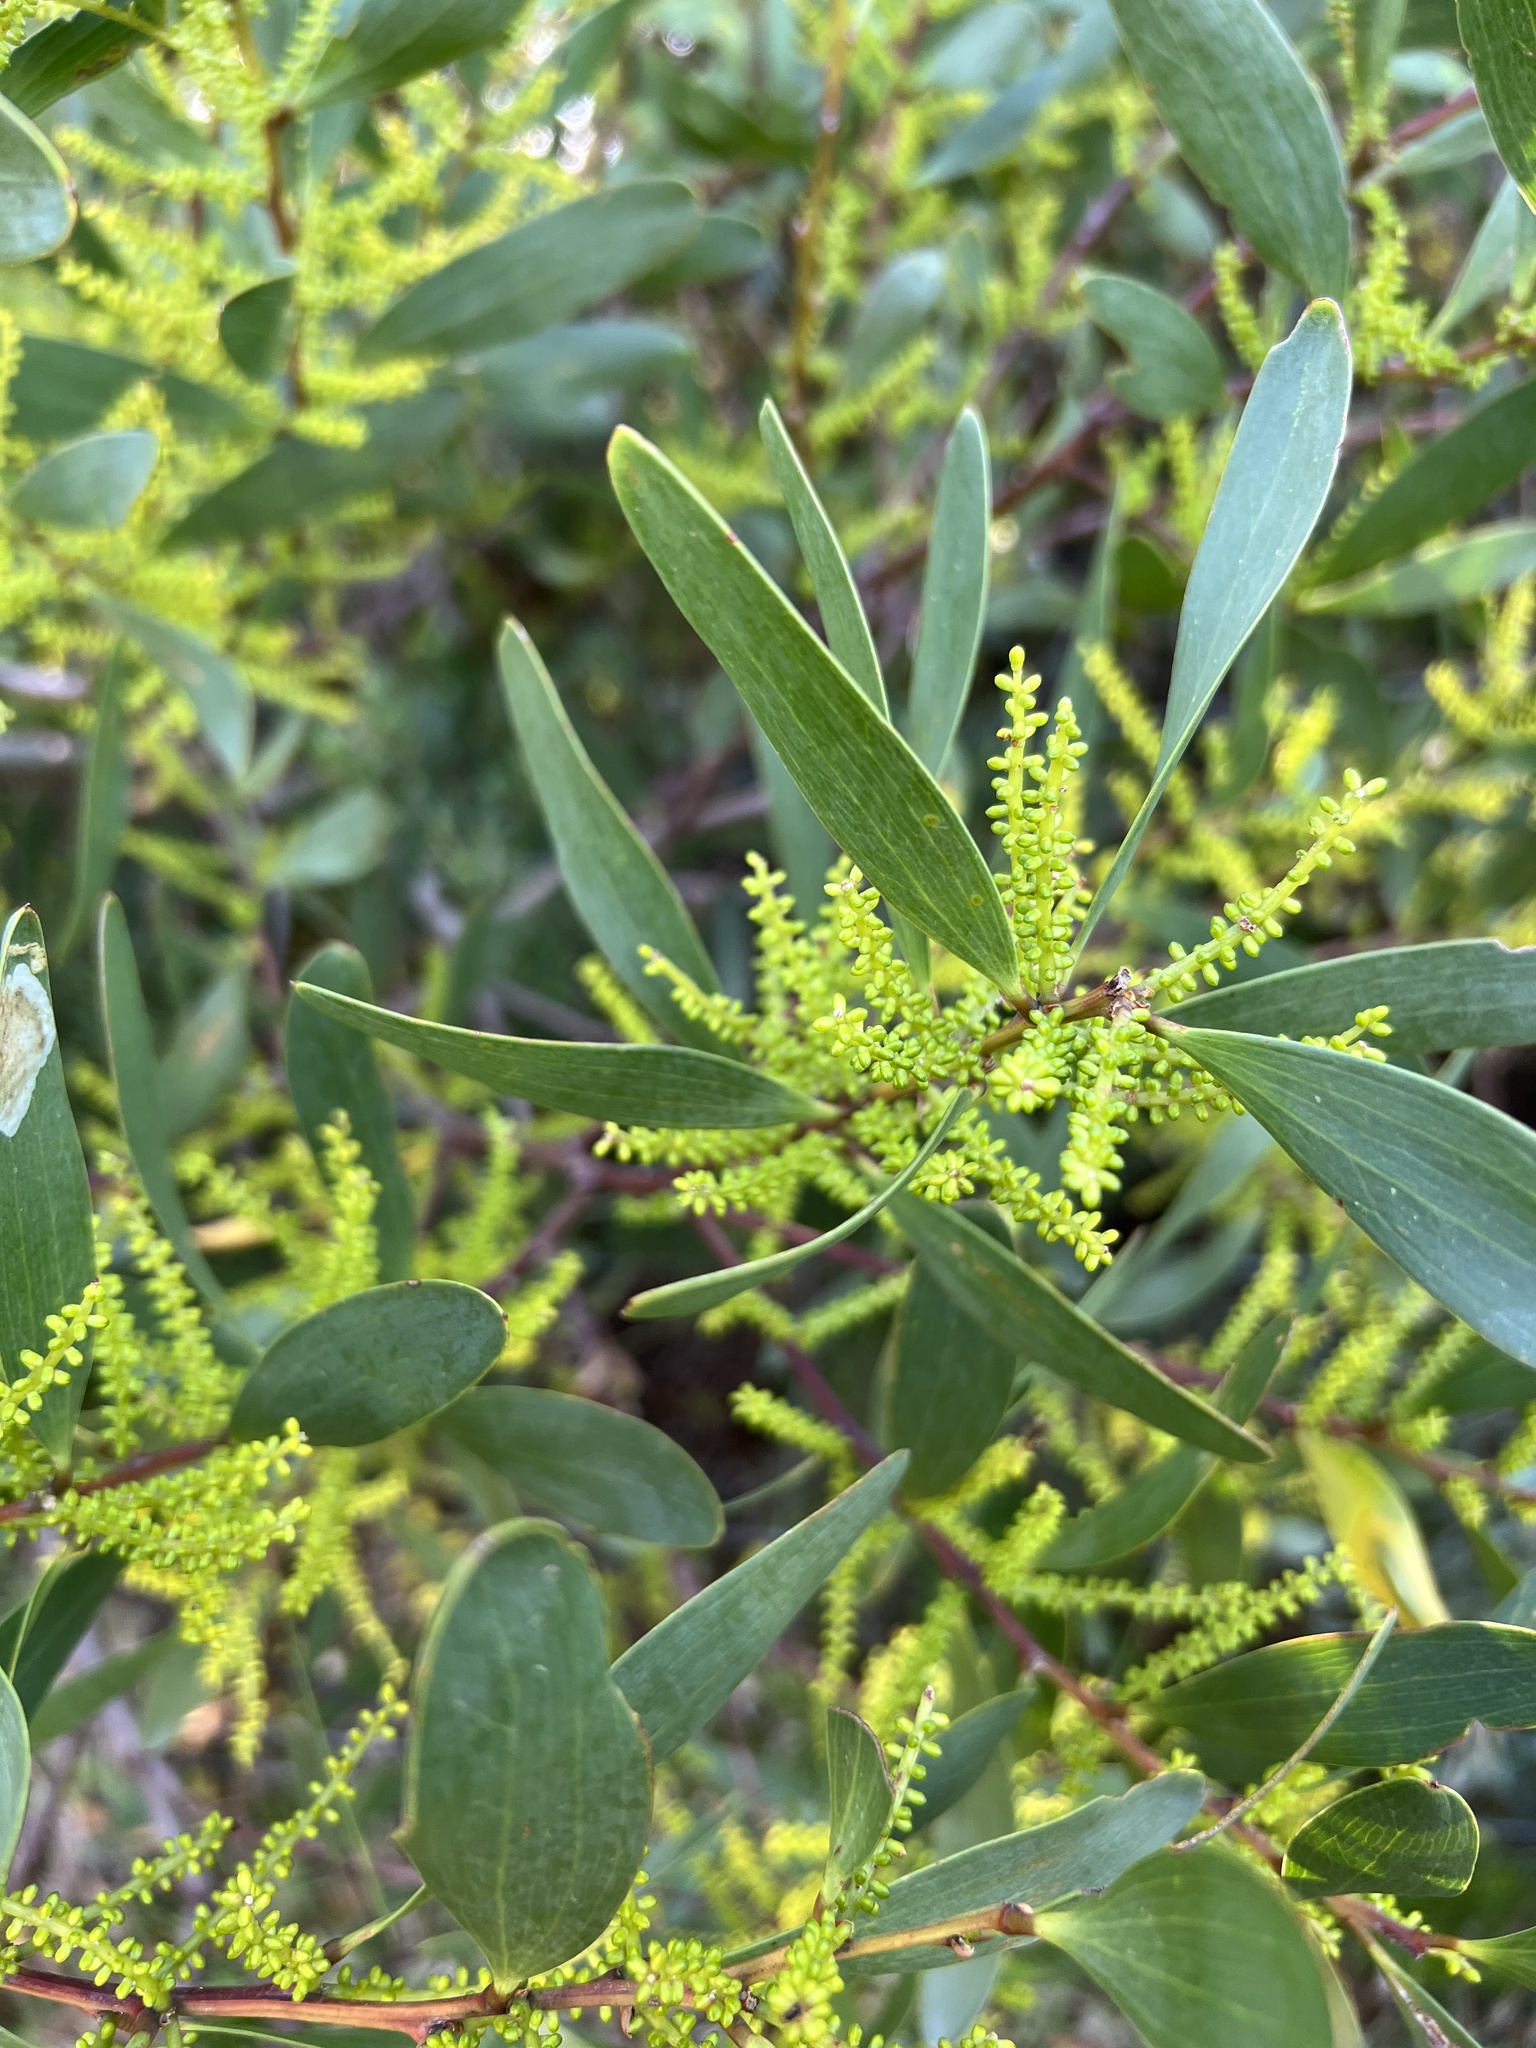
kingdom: Plantae
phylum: Tracheophyta
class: Magnoliopsida
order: Fabales
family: Fabaceae
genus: Acacia
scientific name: Acacia longifolia
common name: Sydney golden wattle
